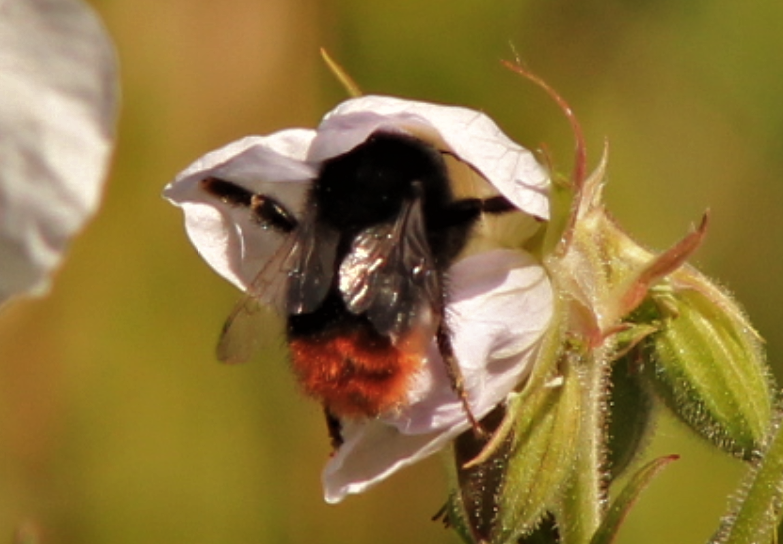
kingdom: Animalia
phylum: Arthropoda
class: Insecta
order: Hymenoptera
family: Apidae
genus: Bombus
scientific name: Bombus lapidarius
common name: Large red-tailed humble-bee
